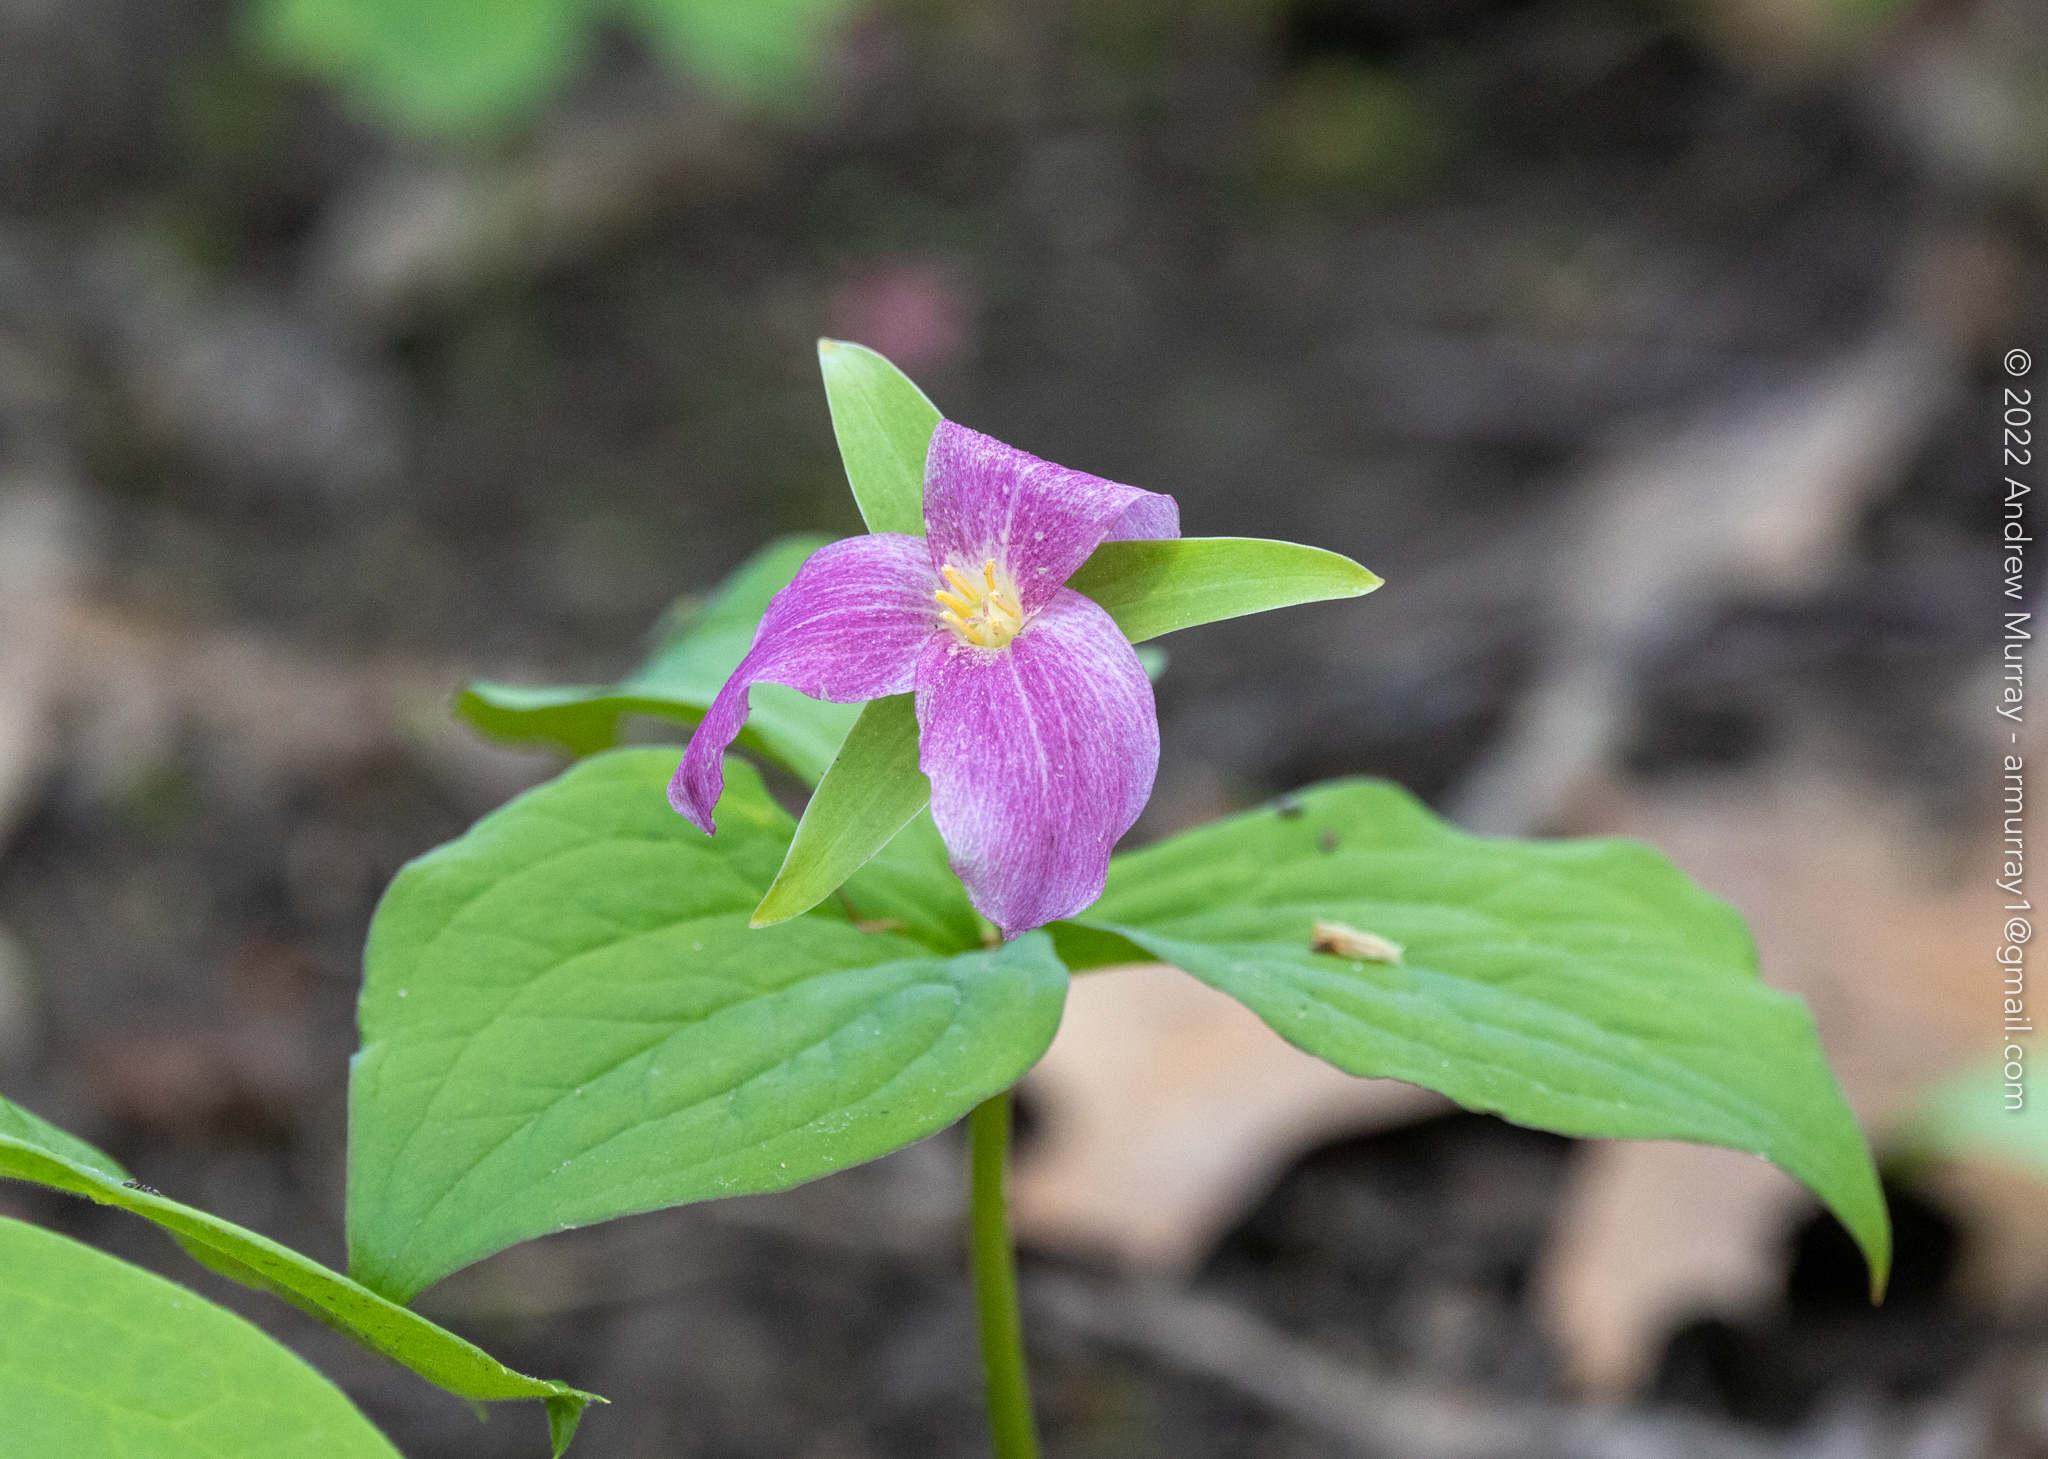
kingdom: Plantae
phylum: Tracheophyta
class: Liliopsida
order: Liliales
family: Melanthiaceae
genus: Trillium
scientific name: Trillium grandiflorum
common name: Great white trillium
